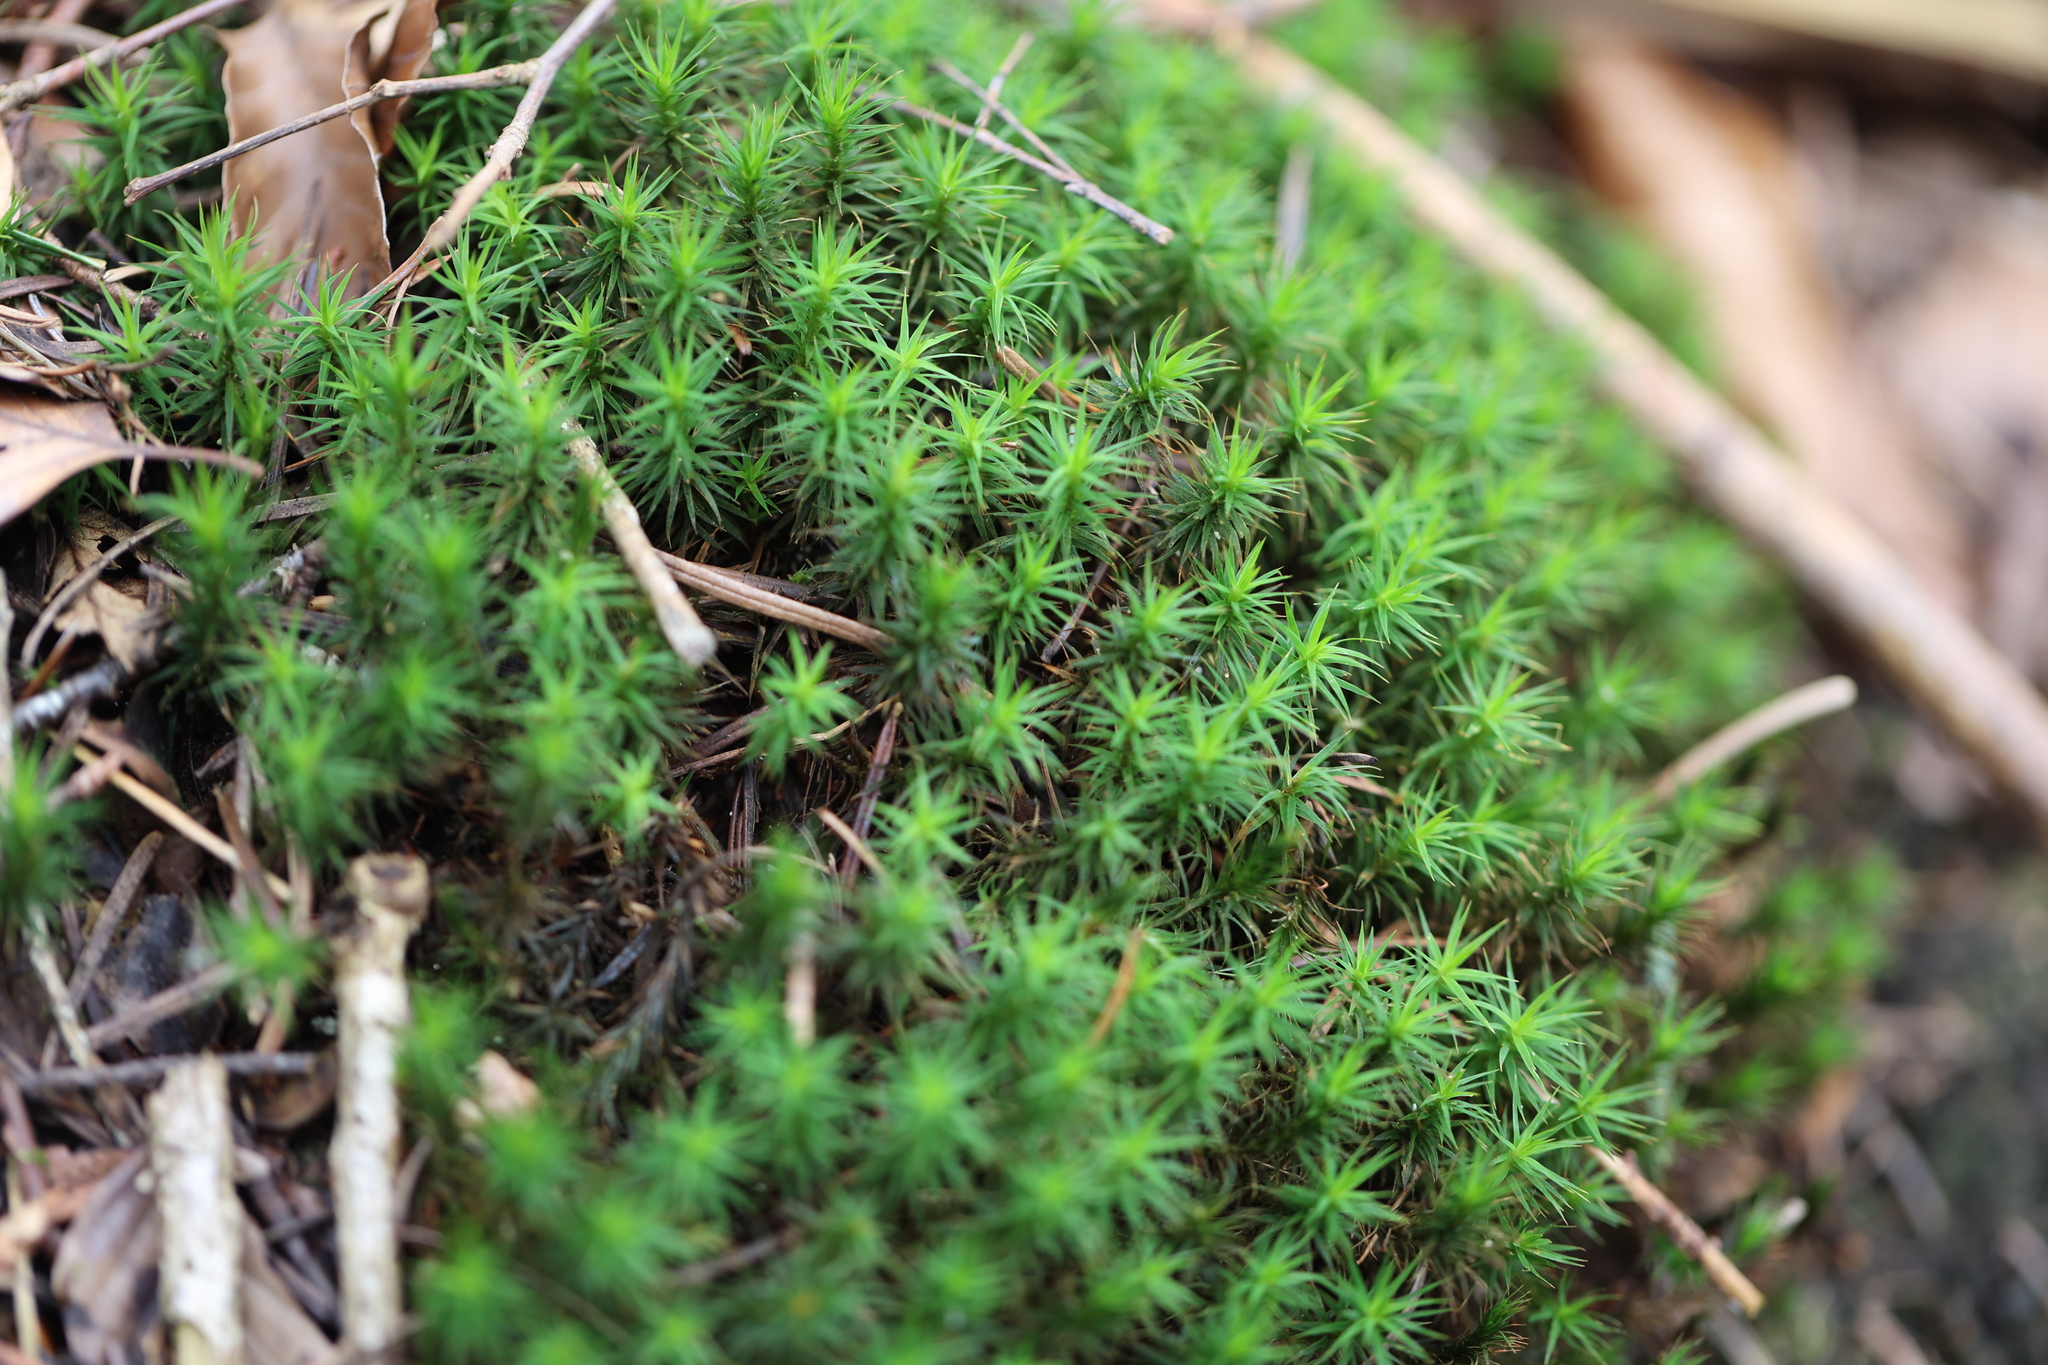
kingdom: Plantae
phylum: Bryophyta
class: Polytrichopsida
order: Polytrichales
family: Polytrichaceae
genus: Polytrichum
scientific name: Polytrichum formosum
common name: Bank haircap moss
